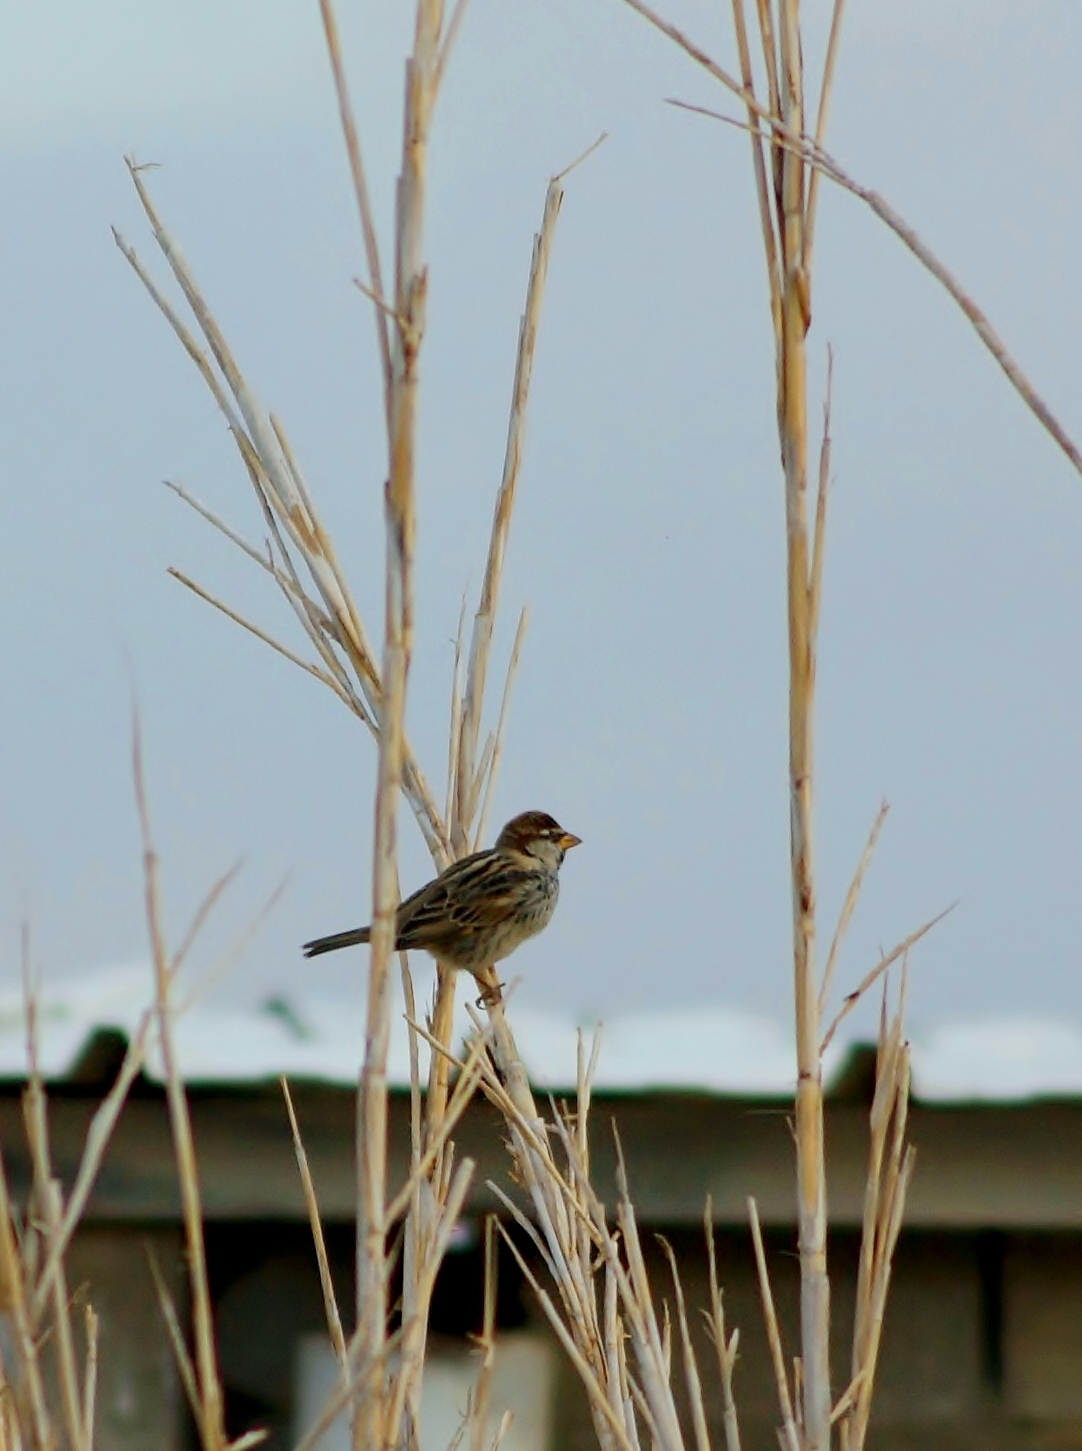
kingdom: Animalia
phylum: Chordata
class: Aves
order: Passeriformes
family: Passeridae
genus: Passer
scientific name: Passer hispaniolensis
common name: Spanish sparrow
